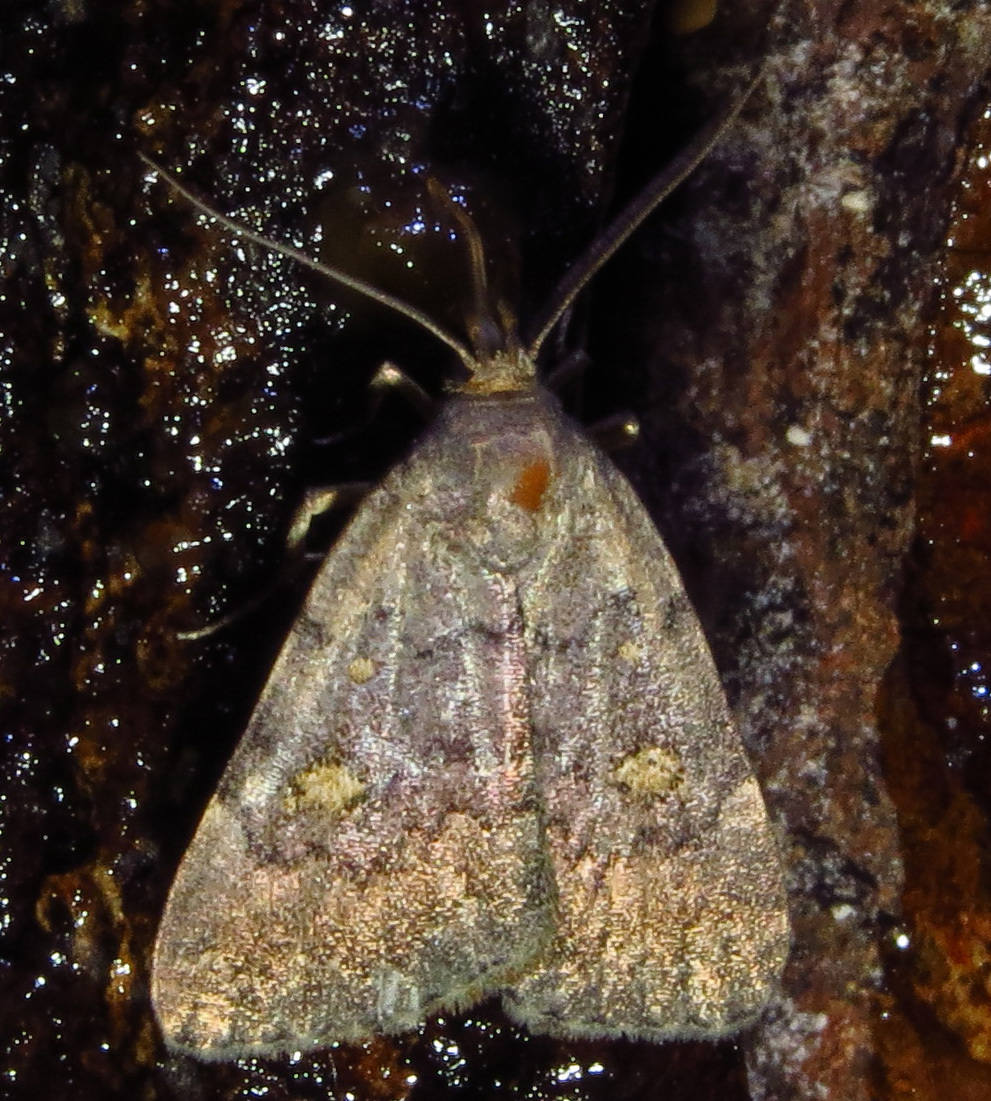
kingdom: Animalia
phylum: Arthropoda
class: Insecta
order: Lepidoptera
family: Erebidae
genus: Idia
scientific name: Idia aemula
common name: Common idia moth
